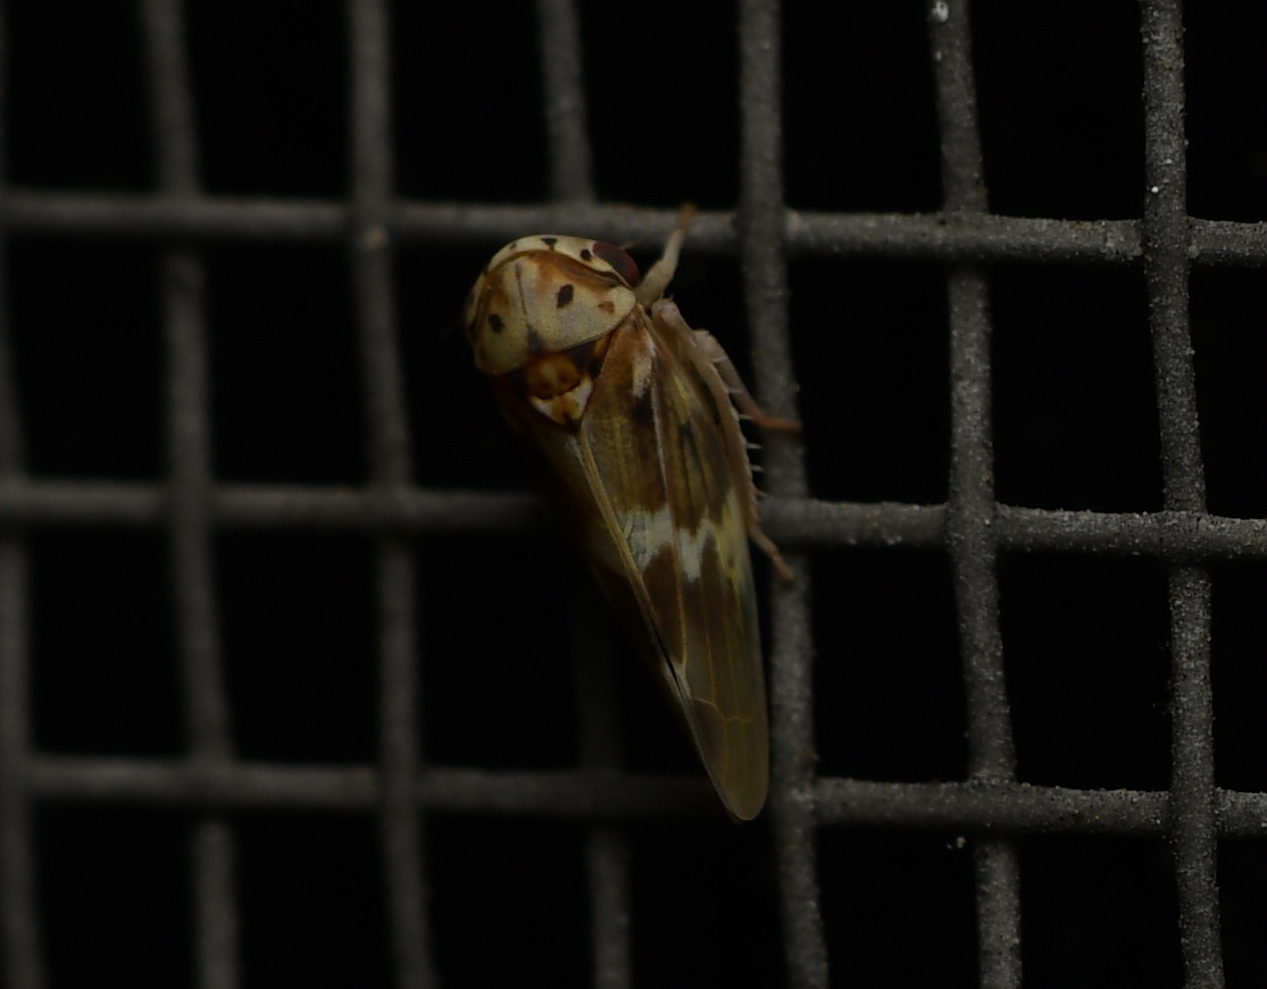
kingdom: Animalia
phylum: Arthropoda
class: Insecta
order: Hemiptera
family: Cicadellidae
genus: Agalliopsis
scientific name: Agalliopsis cervina
